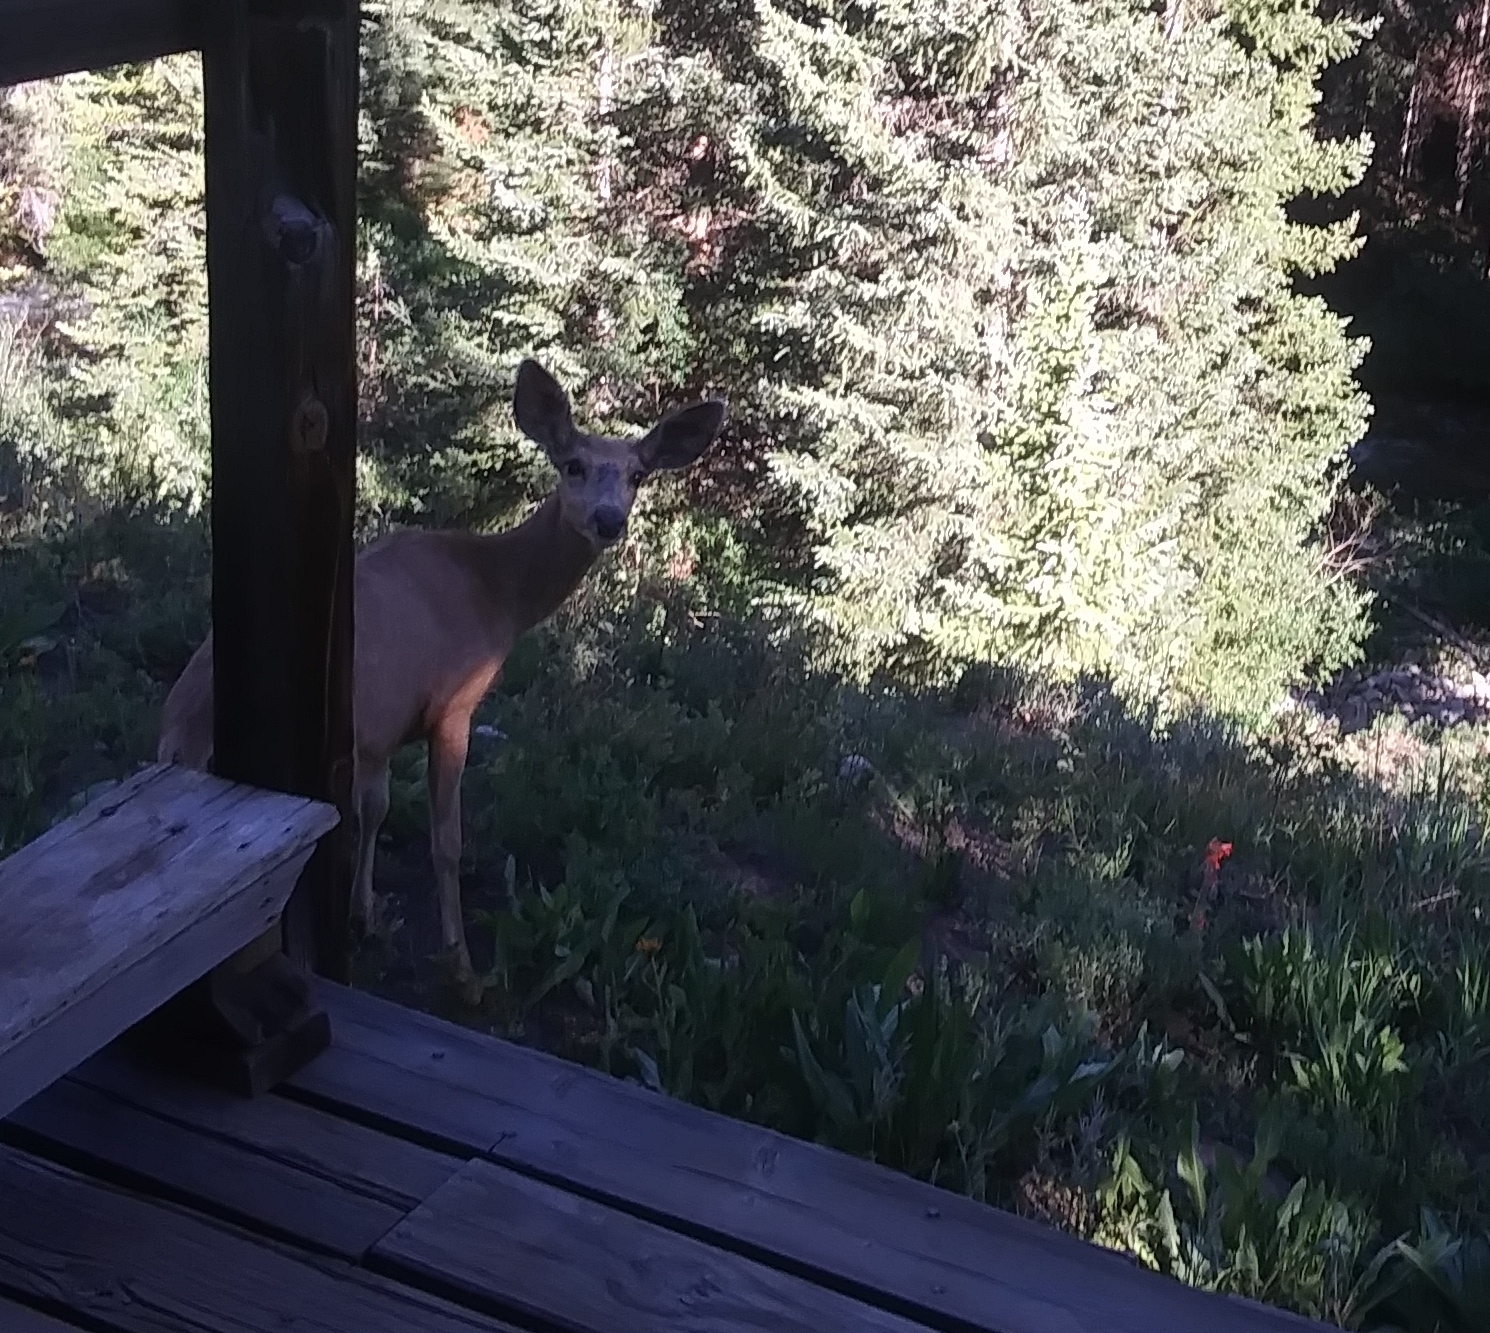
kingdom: Animalia
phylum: Chordata
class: Mammalia
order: Artiodactyla
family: Cervidae
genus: Odocoileus
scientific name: Odocoileus hemionus
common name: Mule deer
